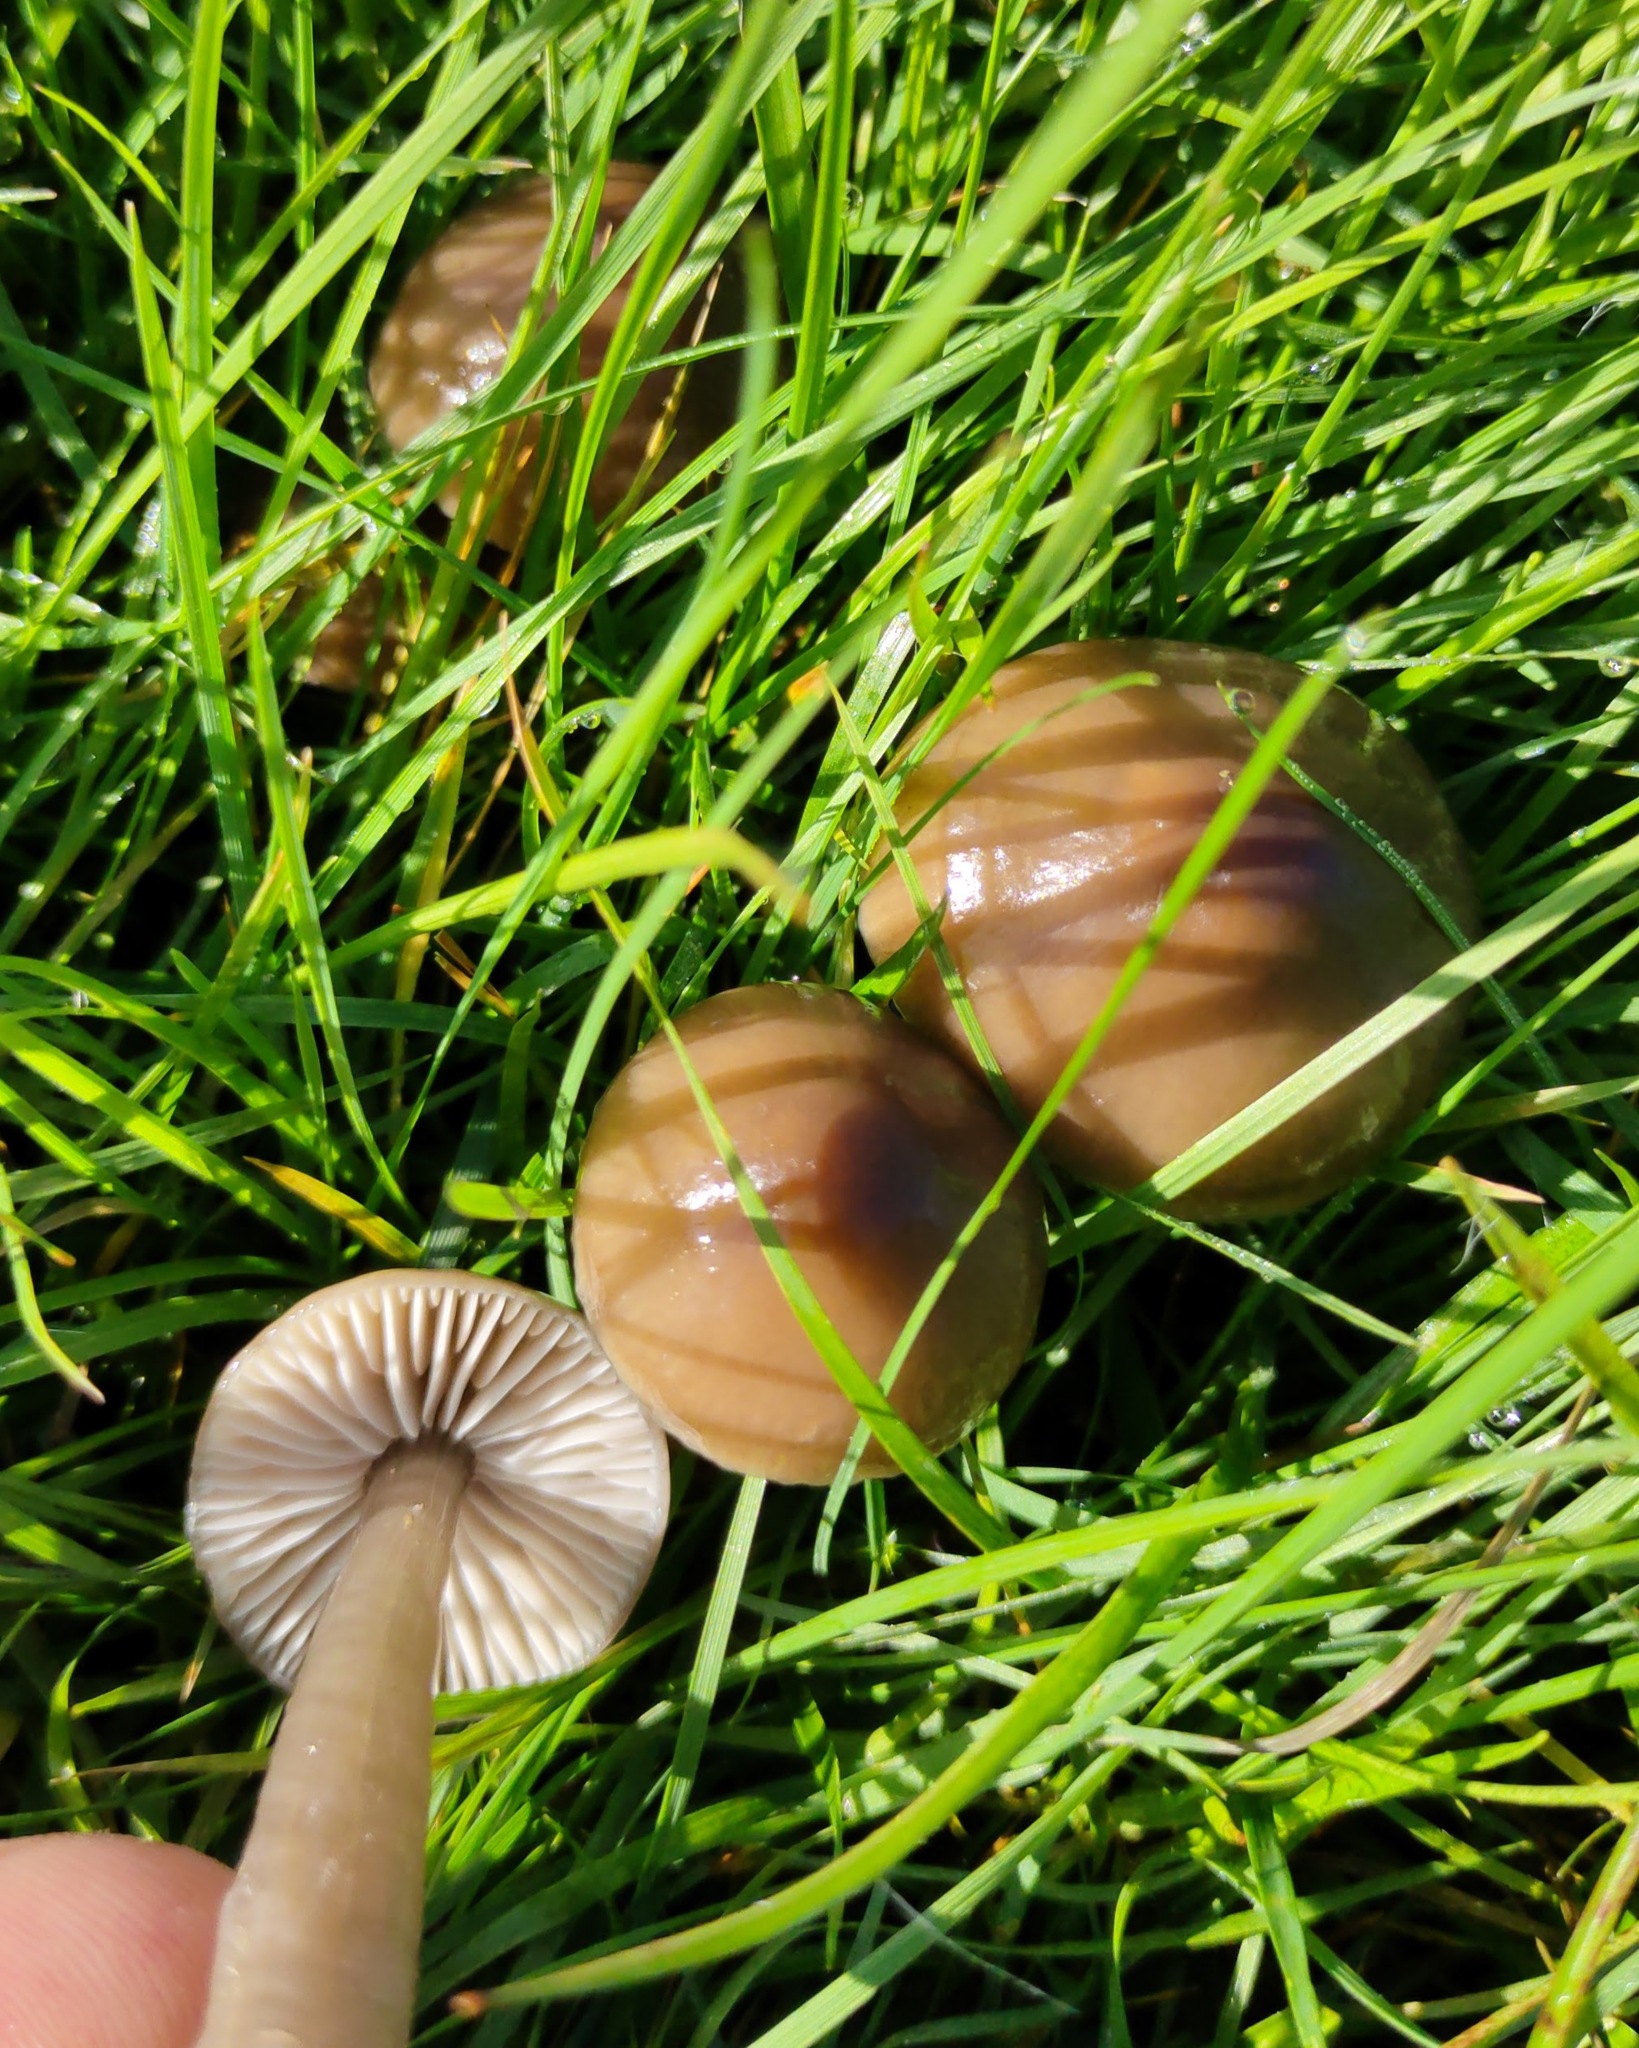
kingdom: Fungi
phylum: Basidiomycota
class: Agaricomycetes
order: Agaricales
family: Hygrophoraceae
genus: Gliophorus
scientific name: Gliophorus irrigatus
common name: Slimy waxcap
